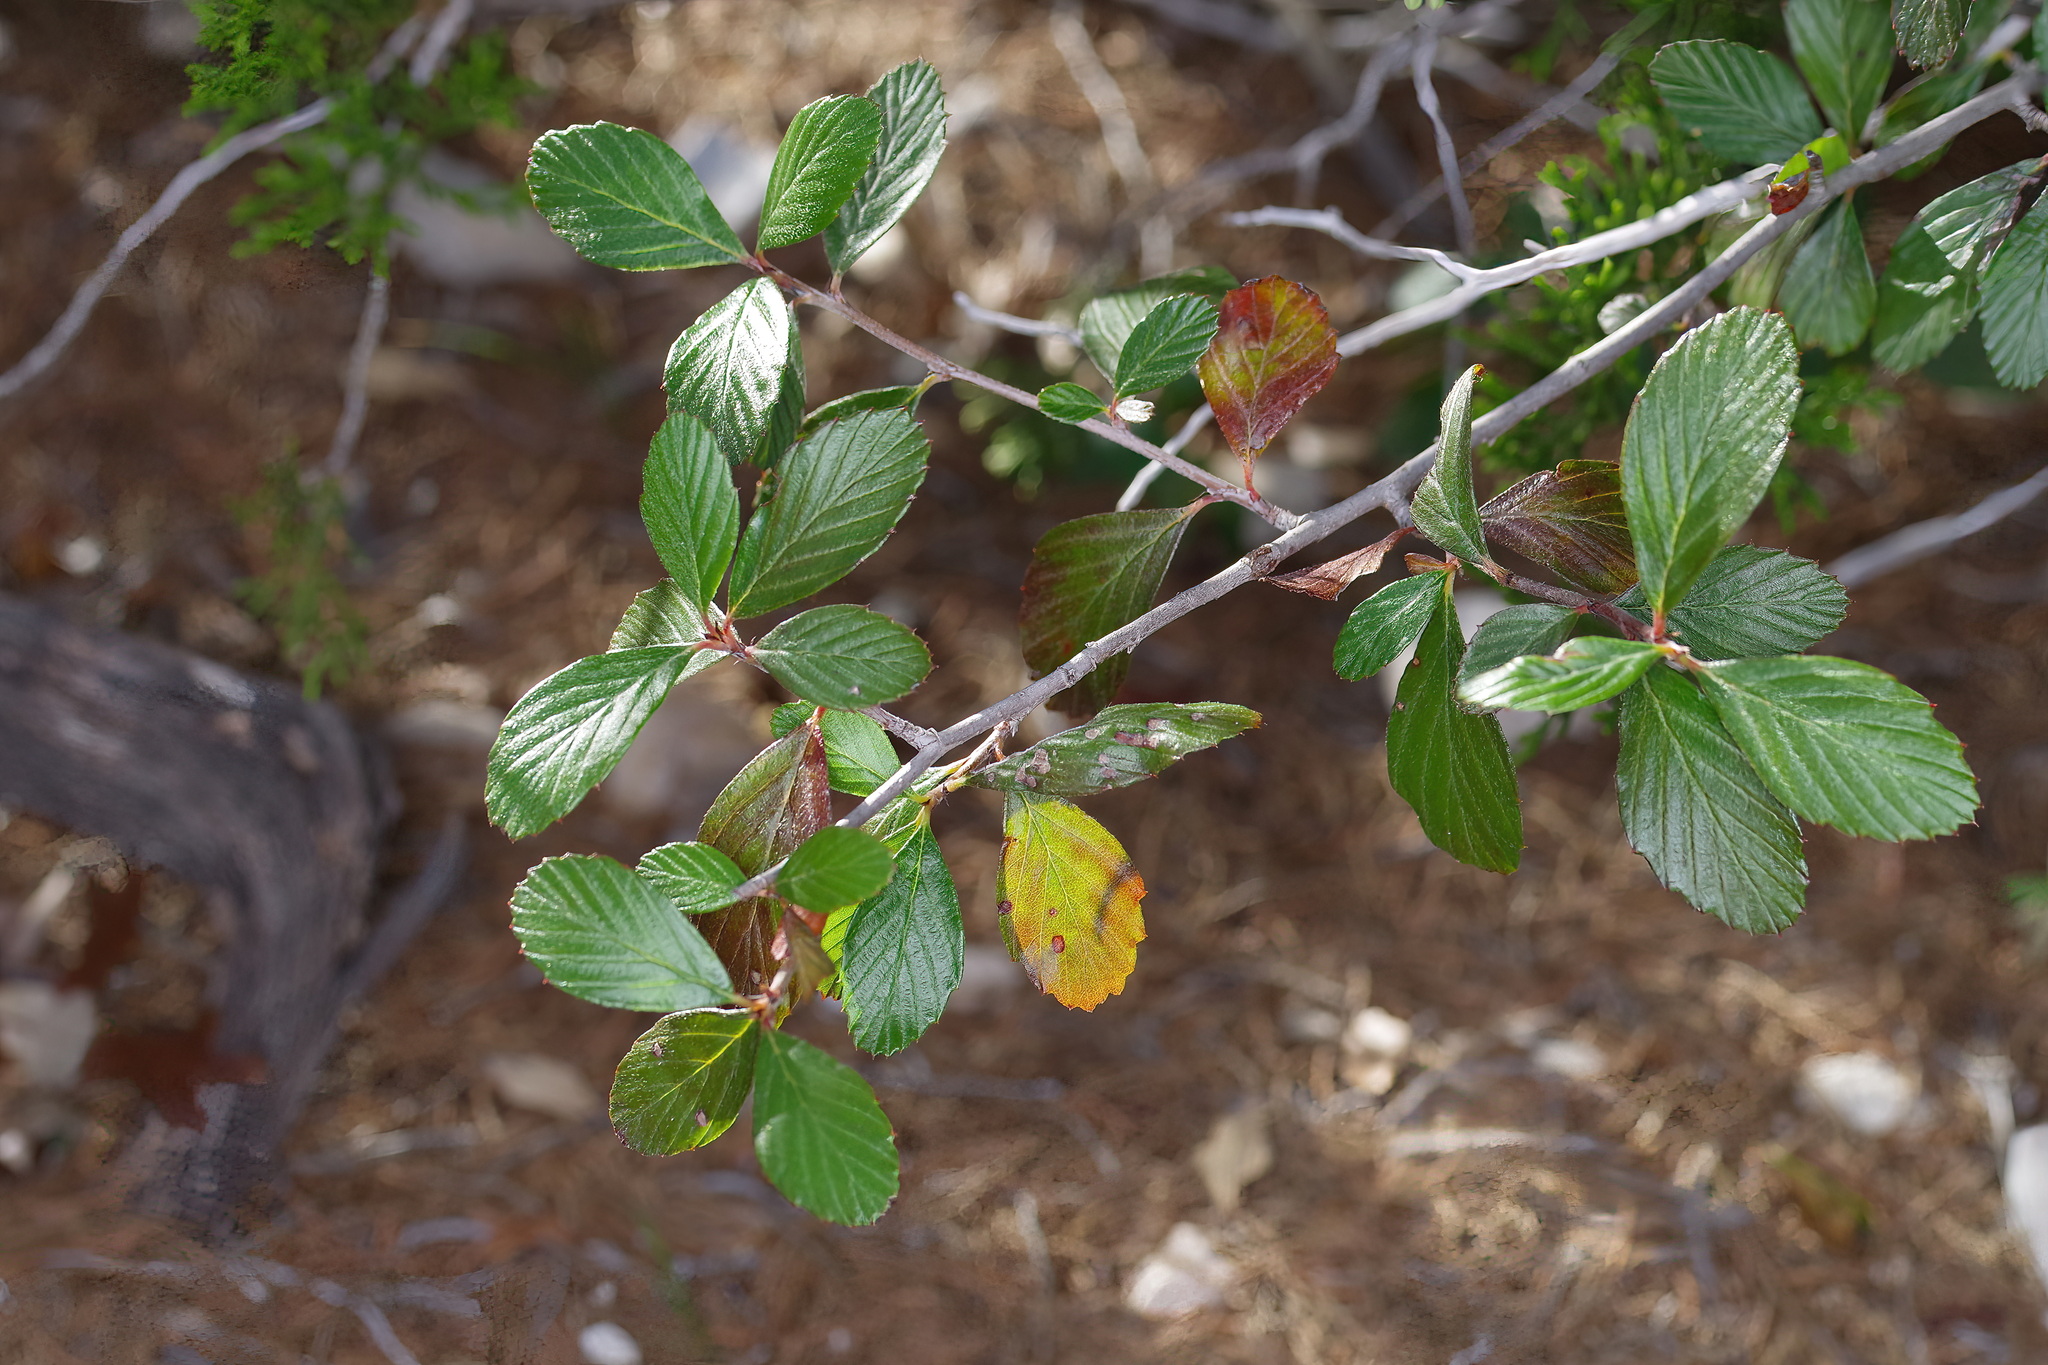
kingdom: Plantae
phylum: Tracheophyta
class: Magnoliopsida
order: Rosales
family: Rosaceae
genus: Cercocarpus
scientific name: Cercocarpus montanus
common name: Alder-leaf cercocarpus
